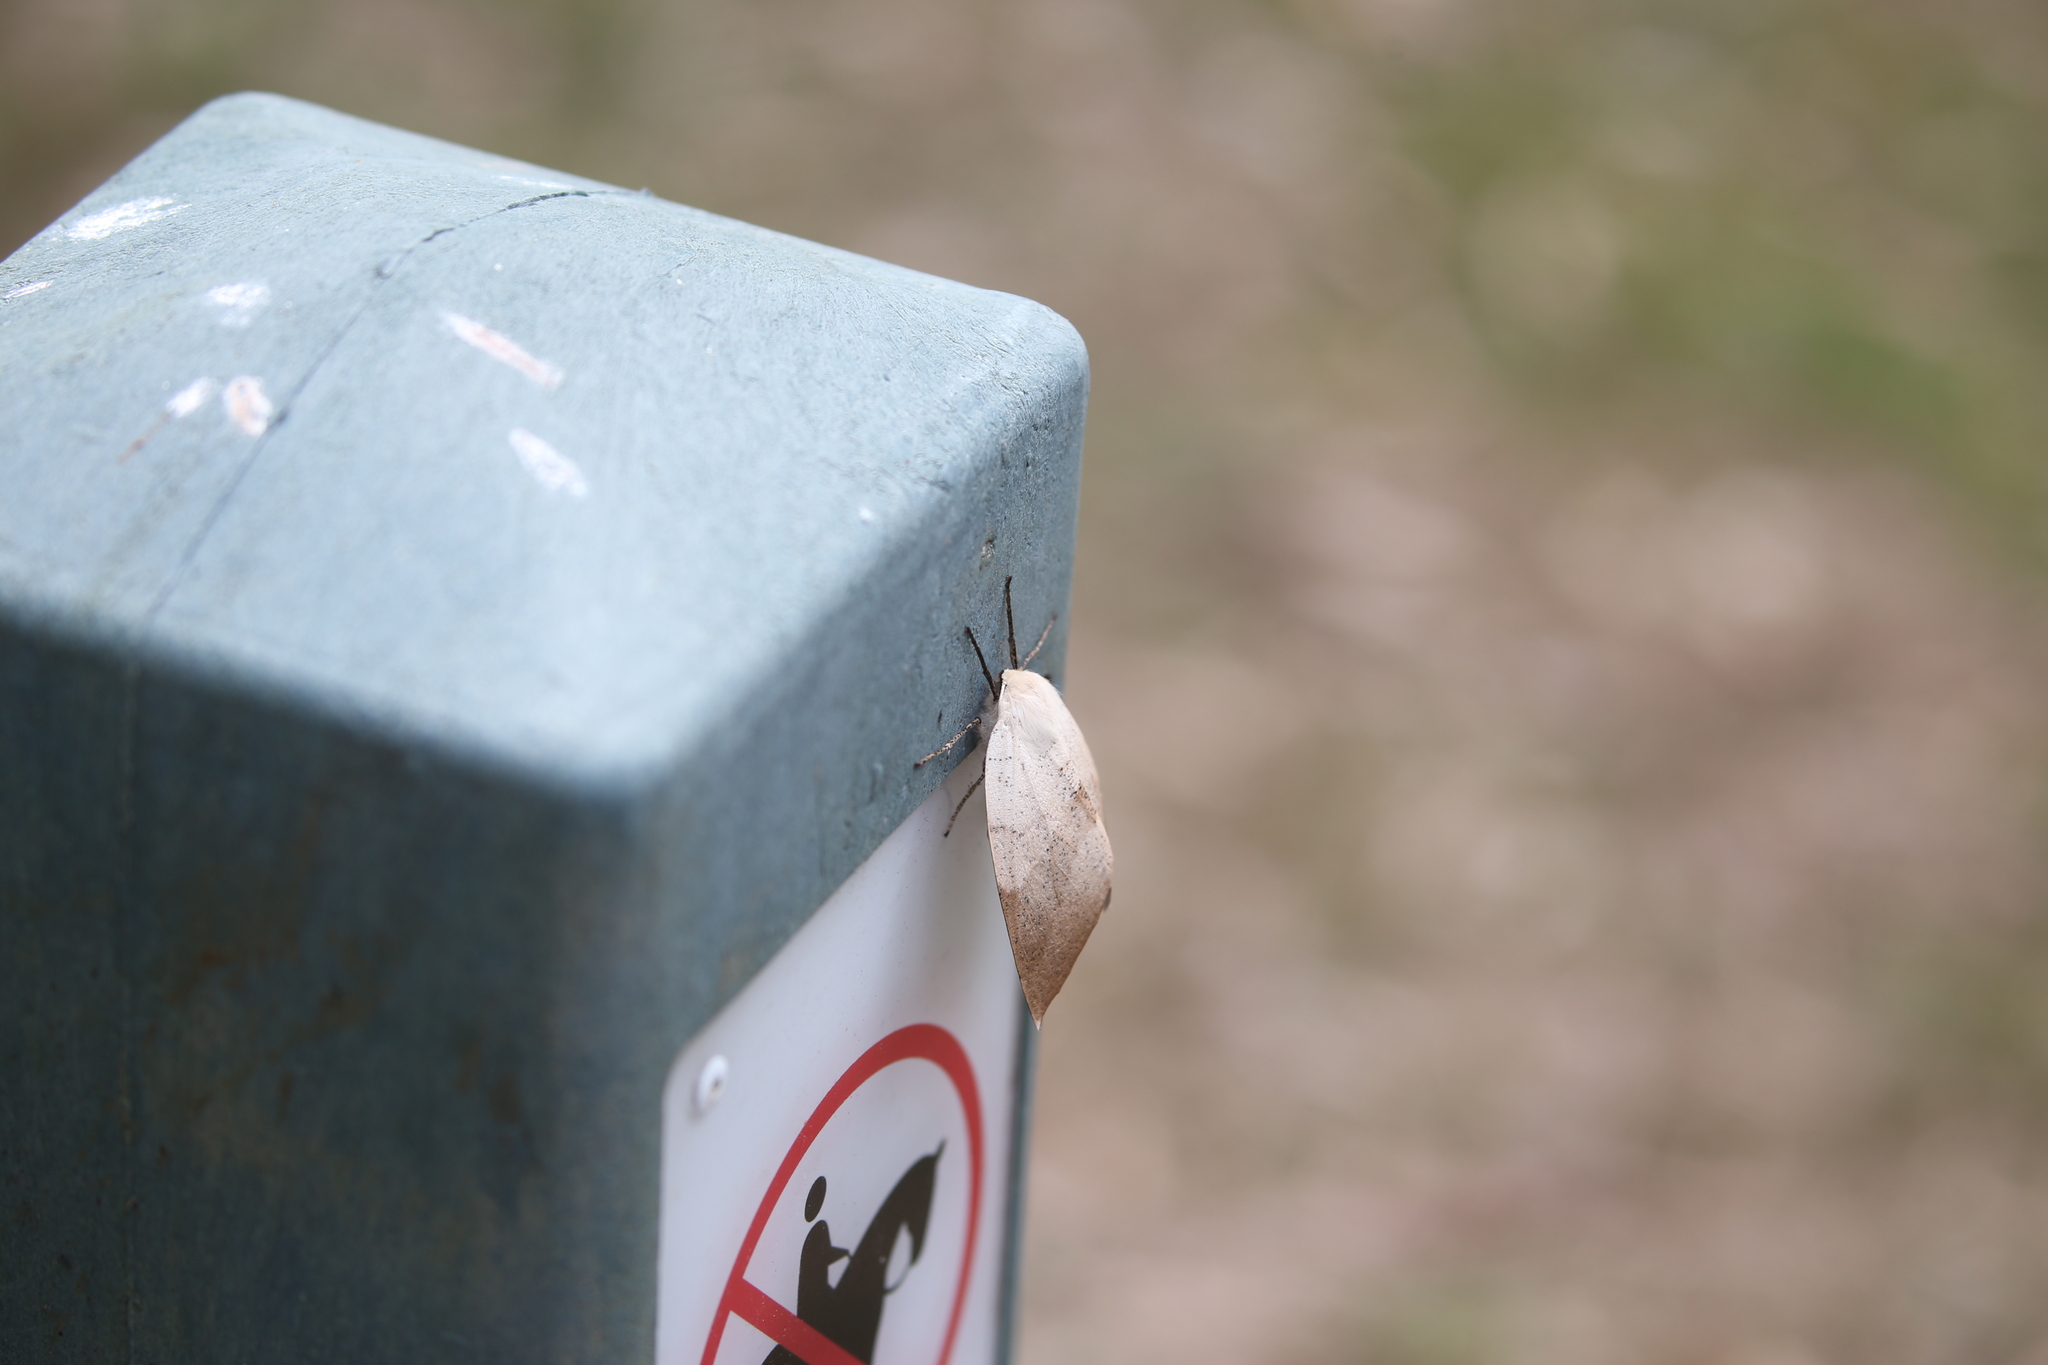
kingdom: Animalia
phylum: Arthropoda
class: Insecta
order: Lepidoptera
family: Geometridae
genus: Gastrophora
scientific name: Gastrophora henricaria
